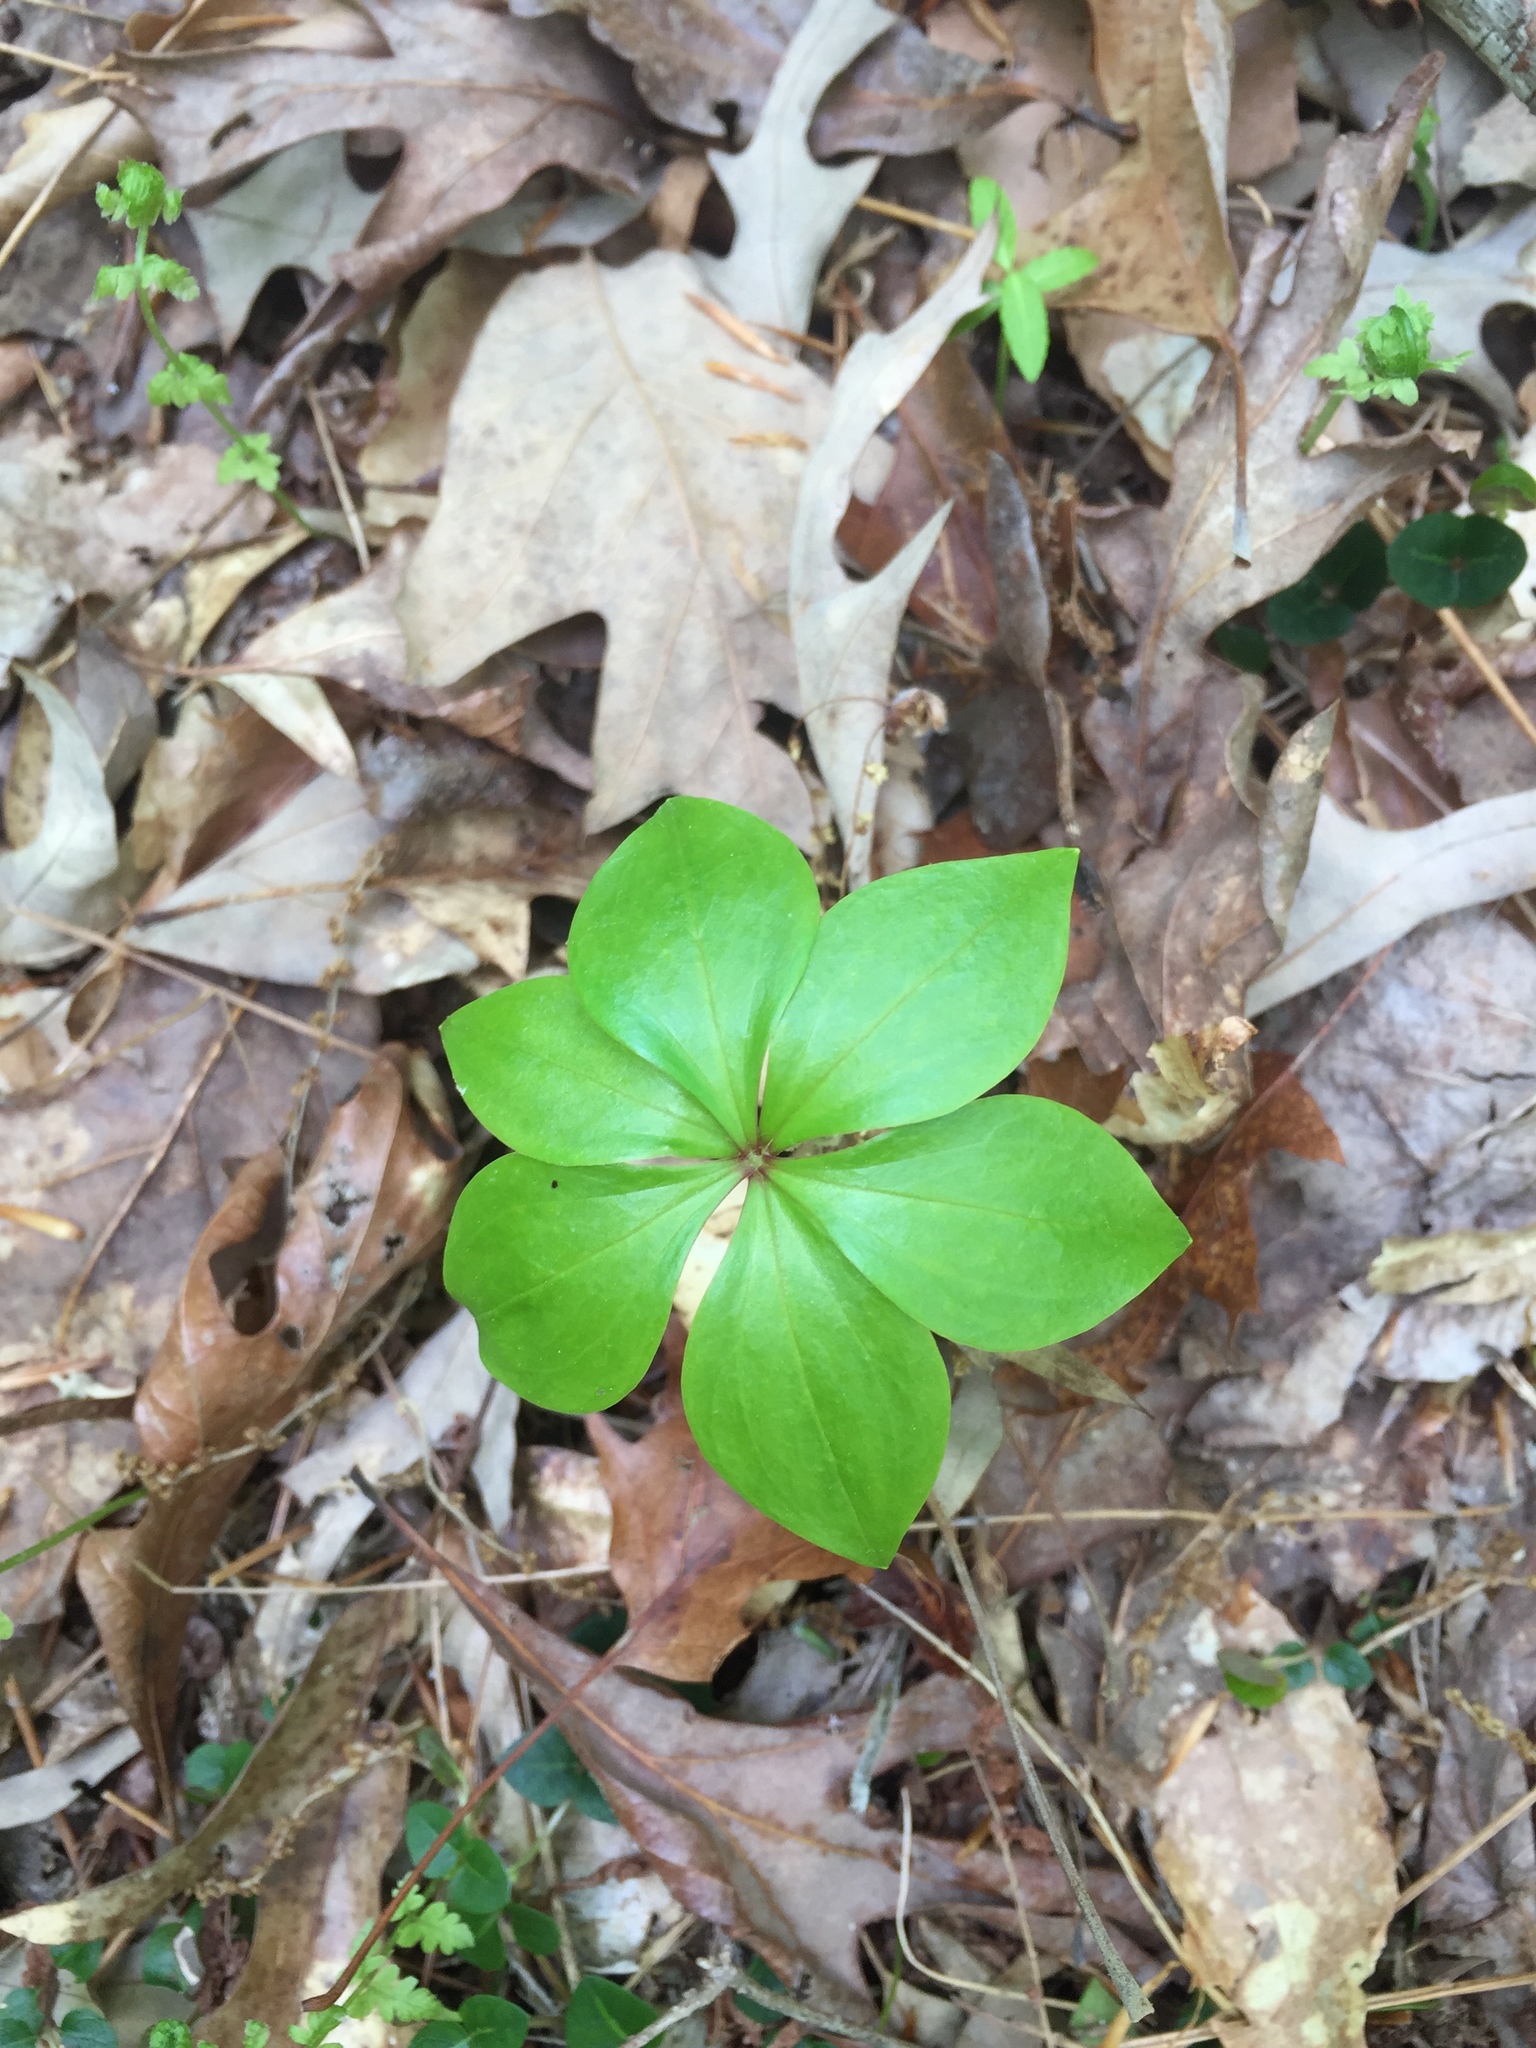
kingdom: Plantae
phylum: Tracheophyta
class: Liliopsida
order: Liliales
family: Liliaceae
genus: Medeola
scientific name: Medeola virginiana
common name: Indian cucumber-root
